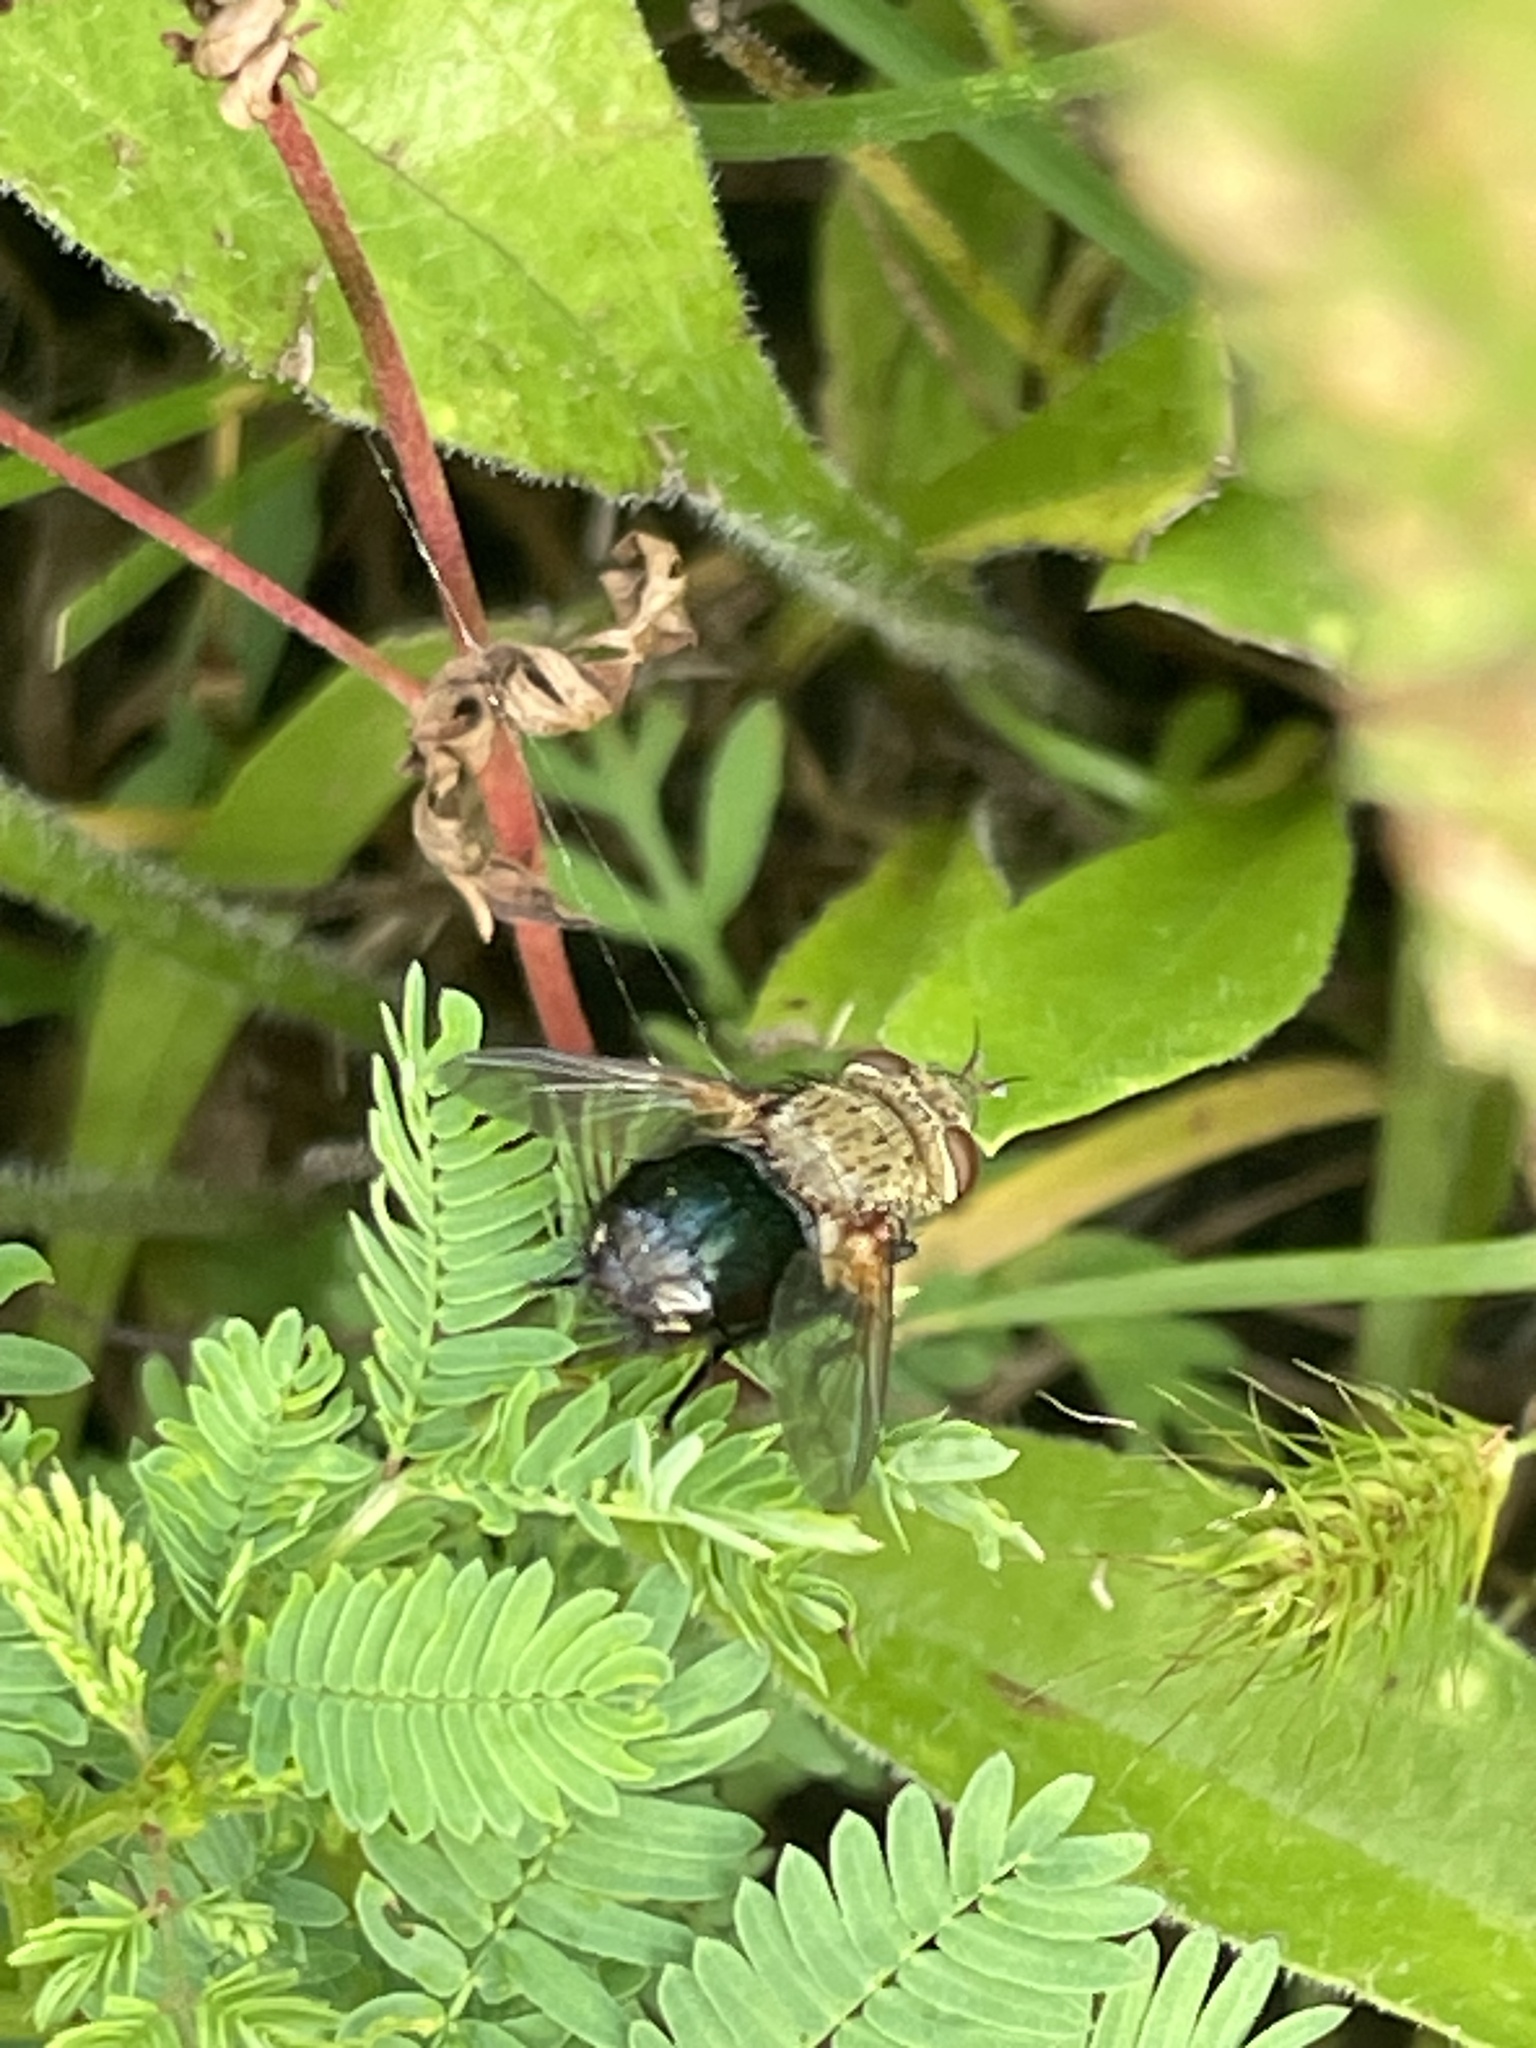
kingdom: Animalia
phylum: Arthropoda
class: Insecta
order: Diptera
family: Tachinidae
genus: Archytas
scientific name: Archytas apicifer
